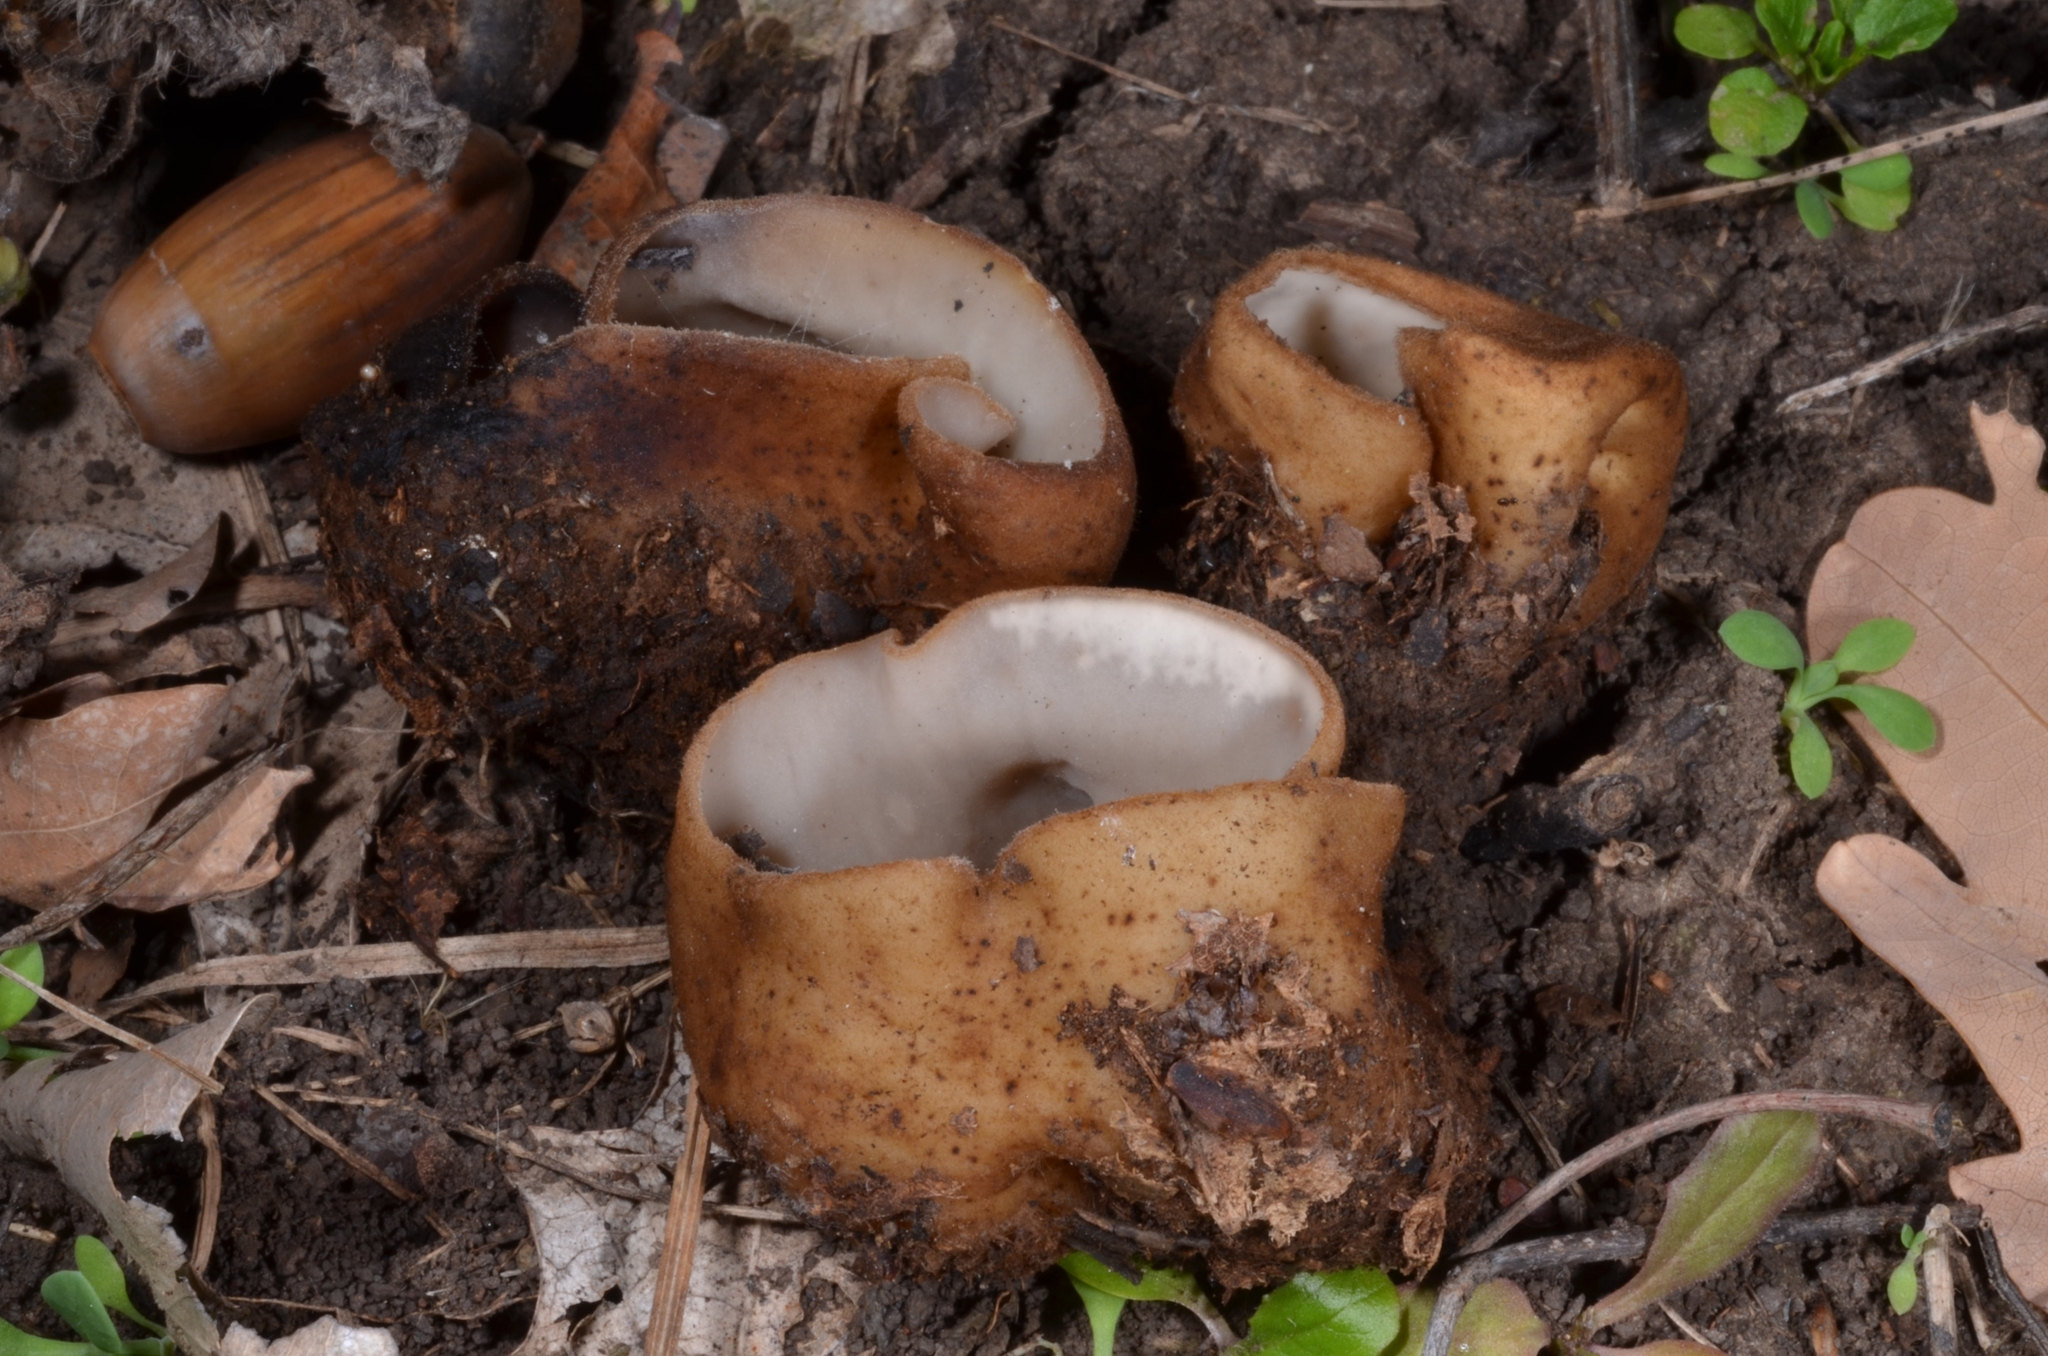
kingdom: Fungi
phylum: Ascomycota
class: Pezizomycetes
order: Pezizales
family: Pyronemataceae
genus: Humaria
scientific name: Humaria hemisphaerica
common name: Glazed cup
